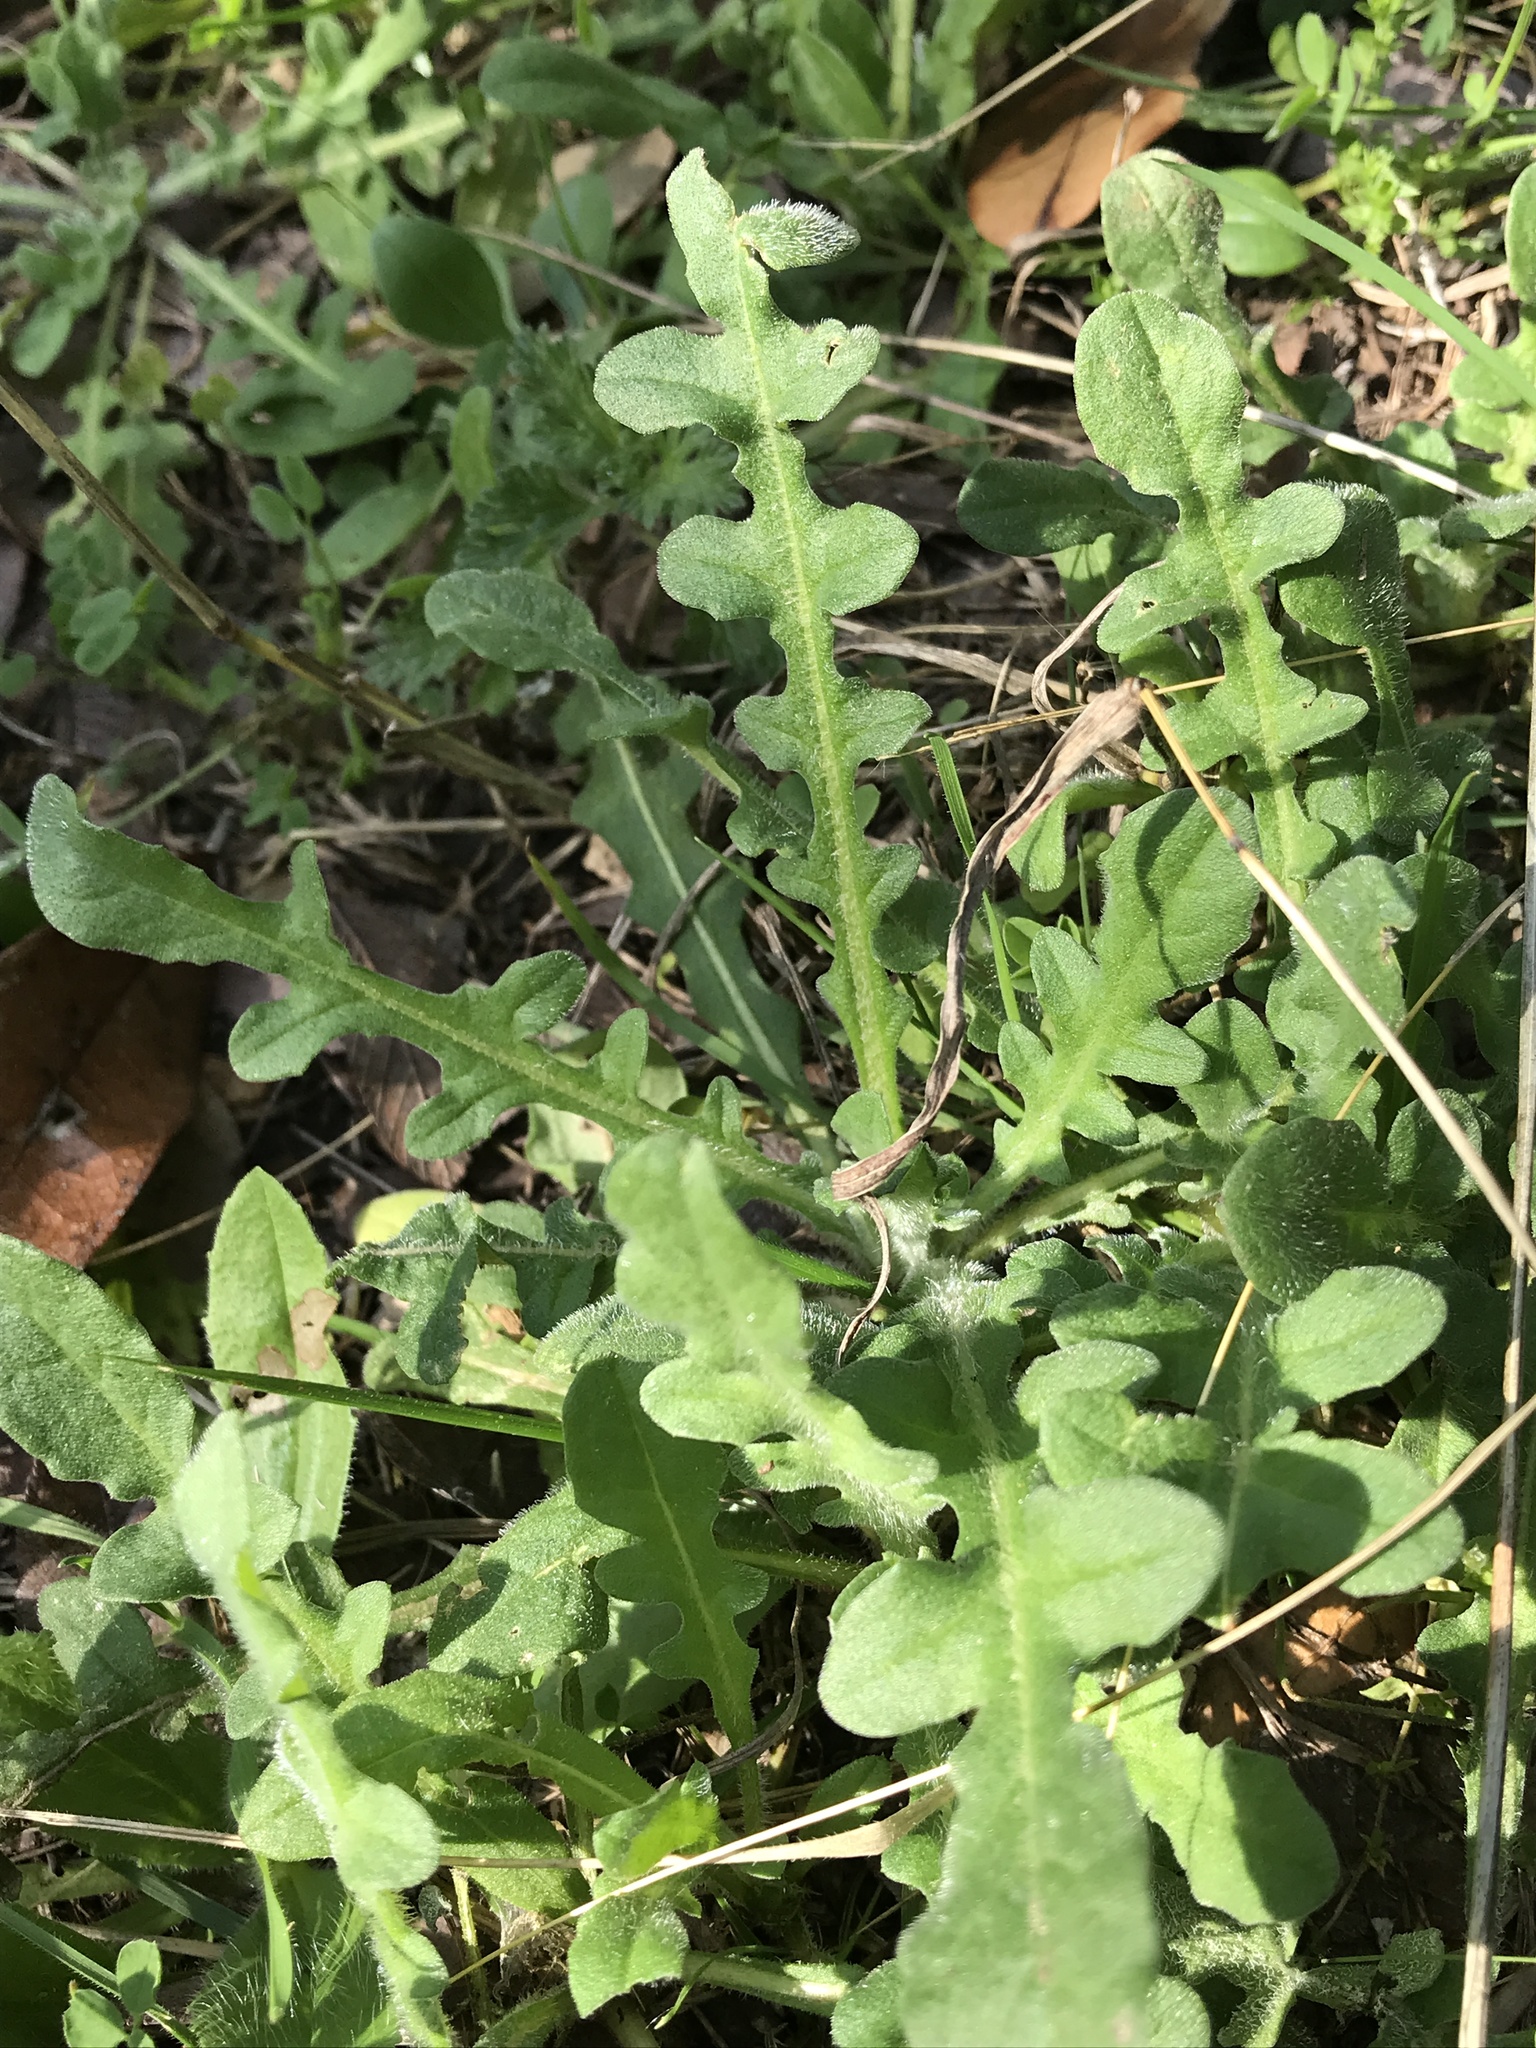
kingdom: Plantae
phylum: Tracheophyta
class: Magnoliopsida
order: Asterales
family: Asteraceae
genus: Centaurea
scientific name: Centaurea melitensis
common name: Maltese star-thistle
